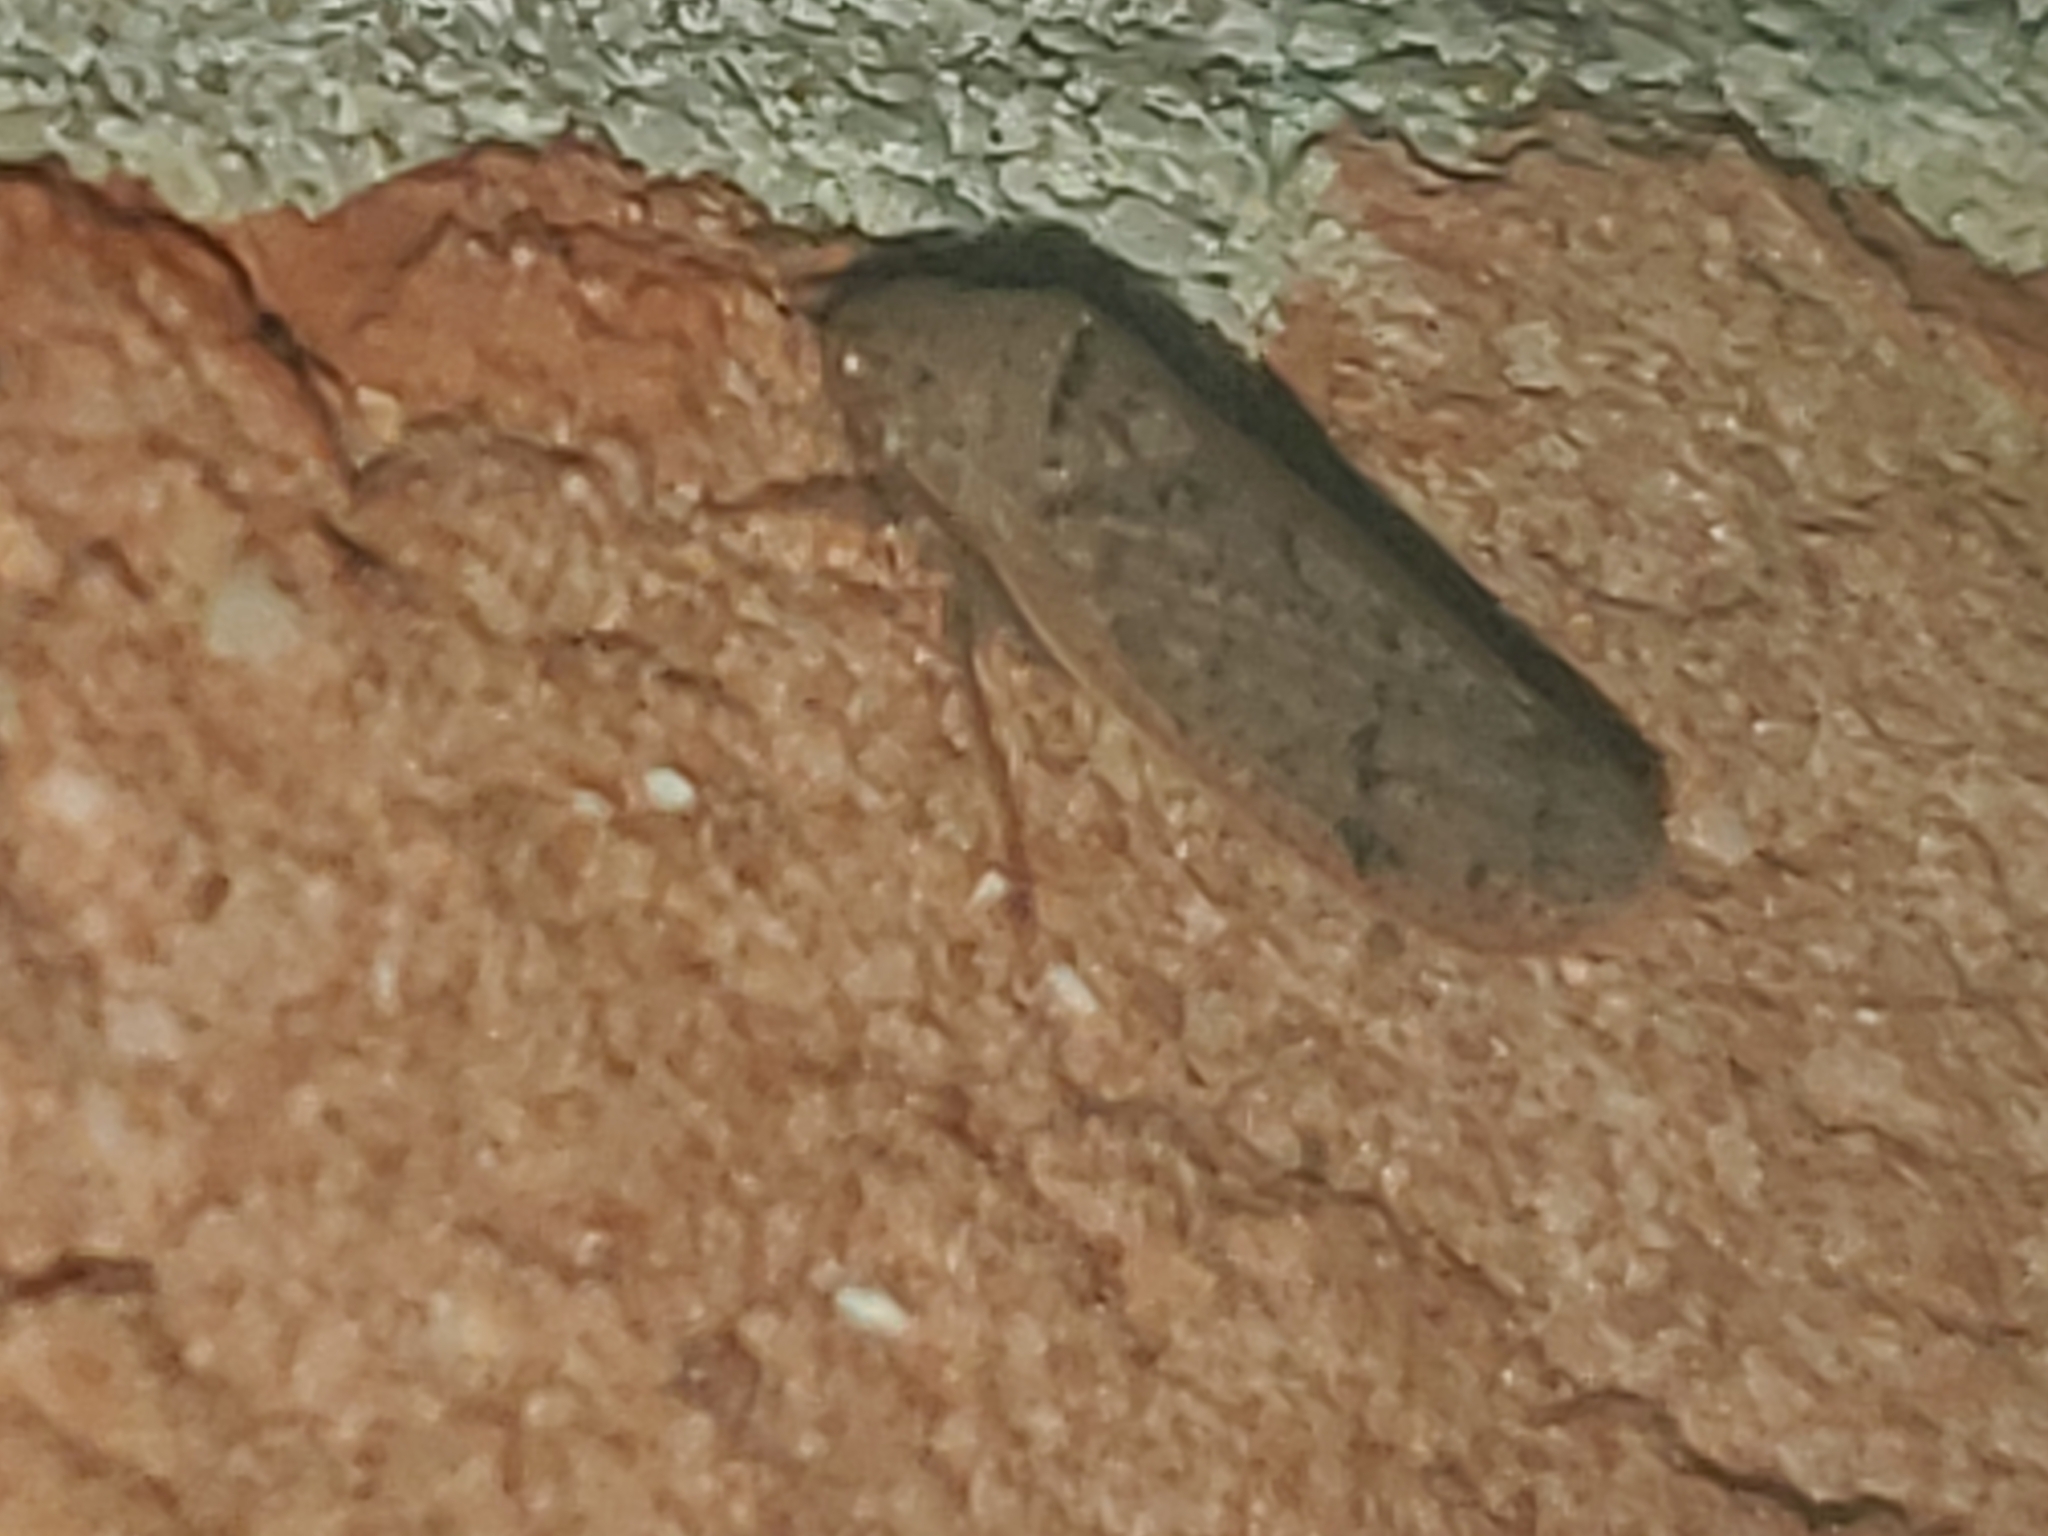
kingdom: Animalia
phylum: Arthropoda
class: Insecta
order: Hemiptera
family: Cicadellidae
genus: Ponana
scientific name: Ponana puncticollis
